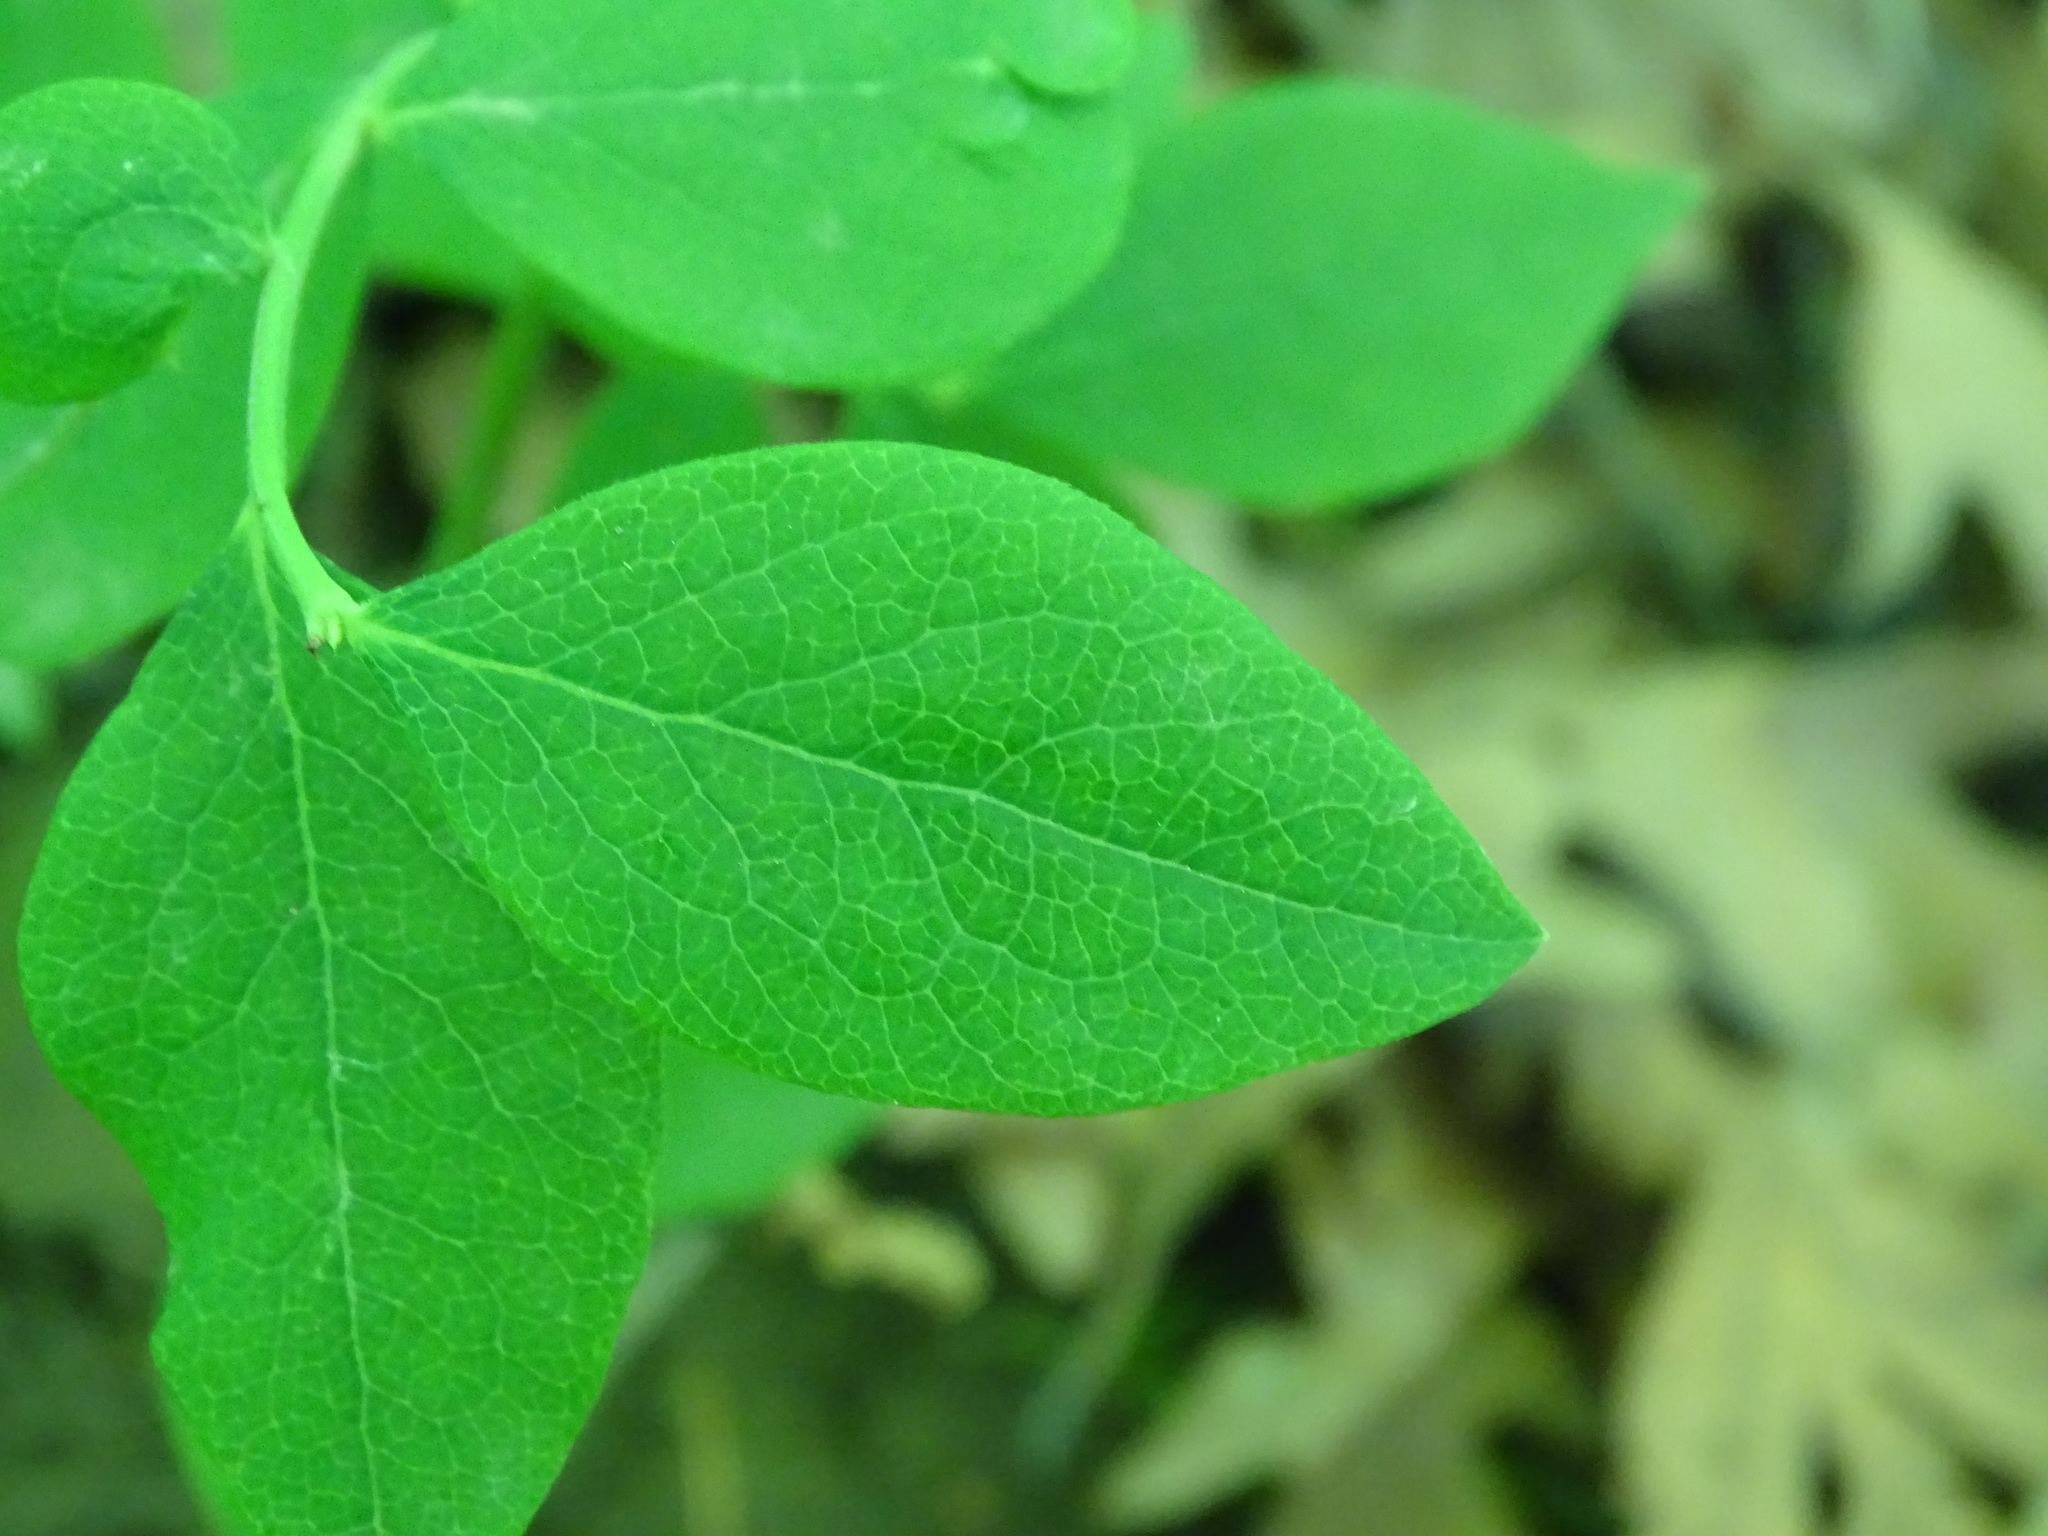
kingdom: Plantae
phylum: Tracheophyta
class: Magnoliopsida
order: Ericales
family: Ericaceae
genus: Vaccinium
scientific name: Vaccinium pallidum
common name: Blue ridge blueberry
